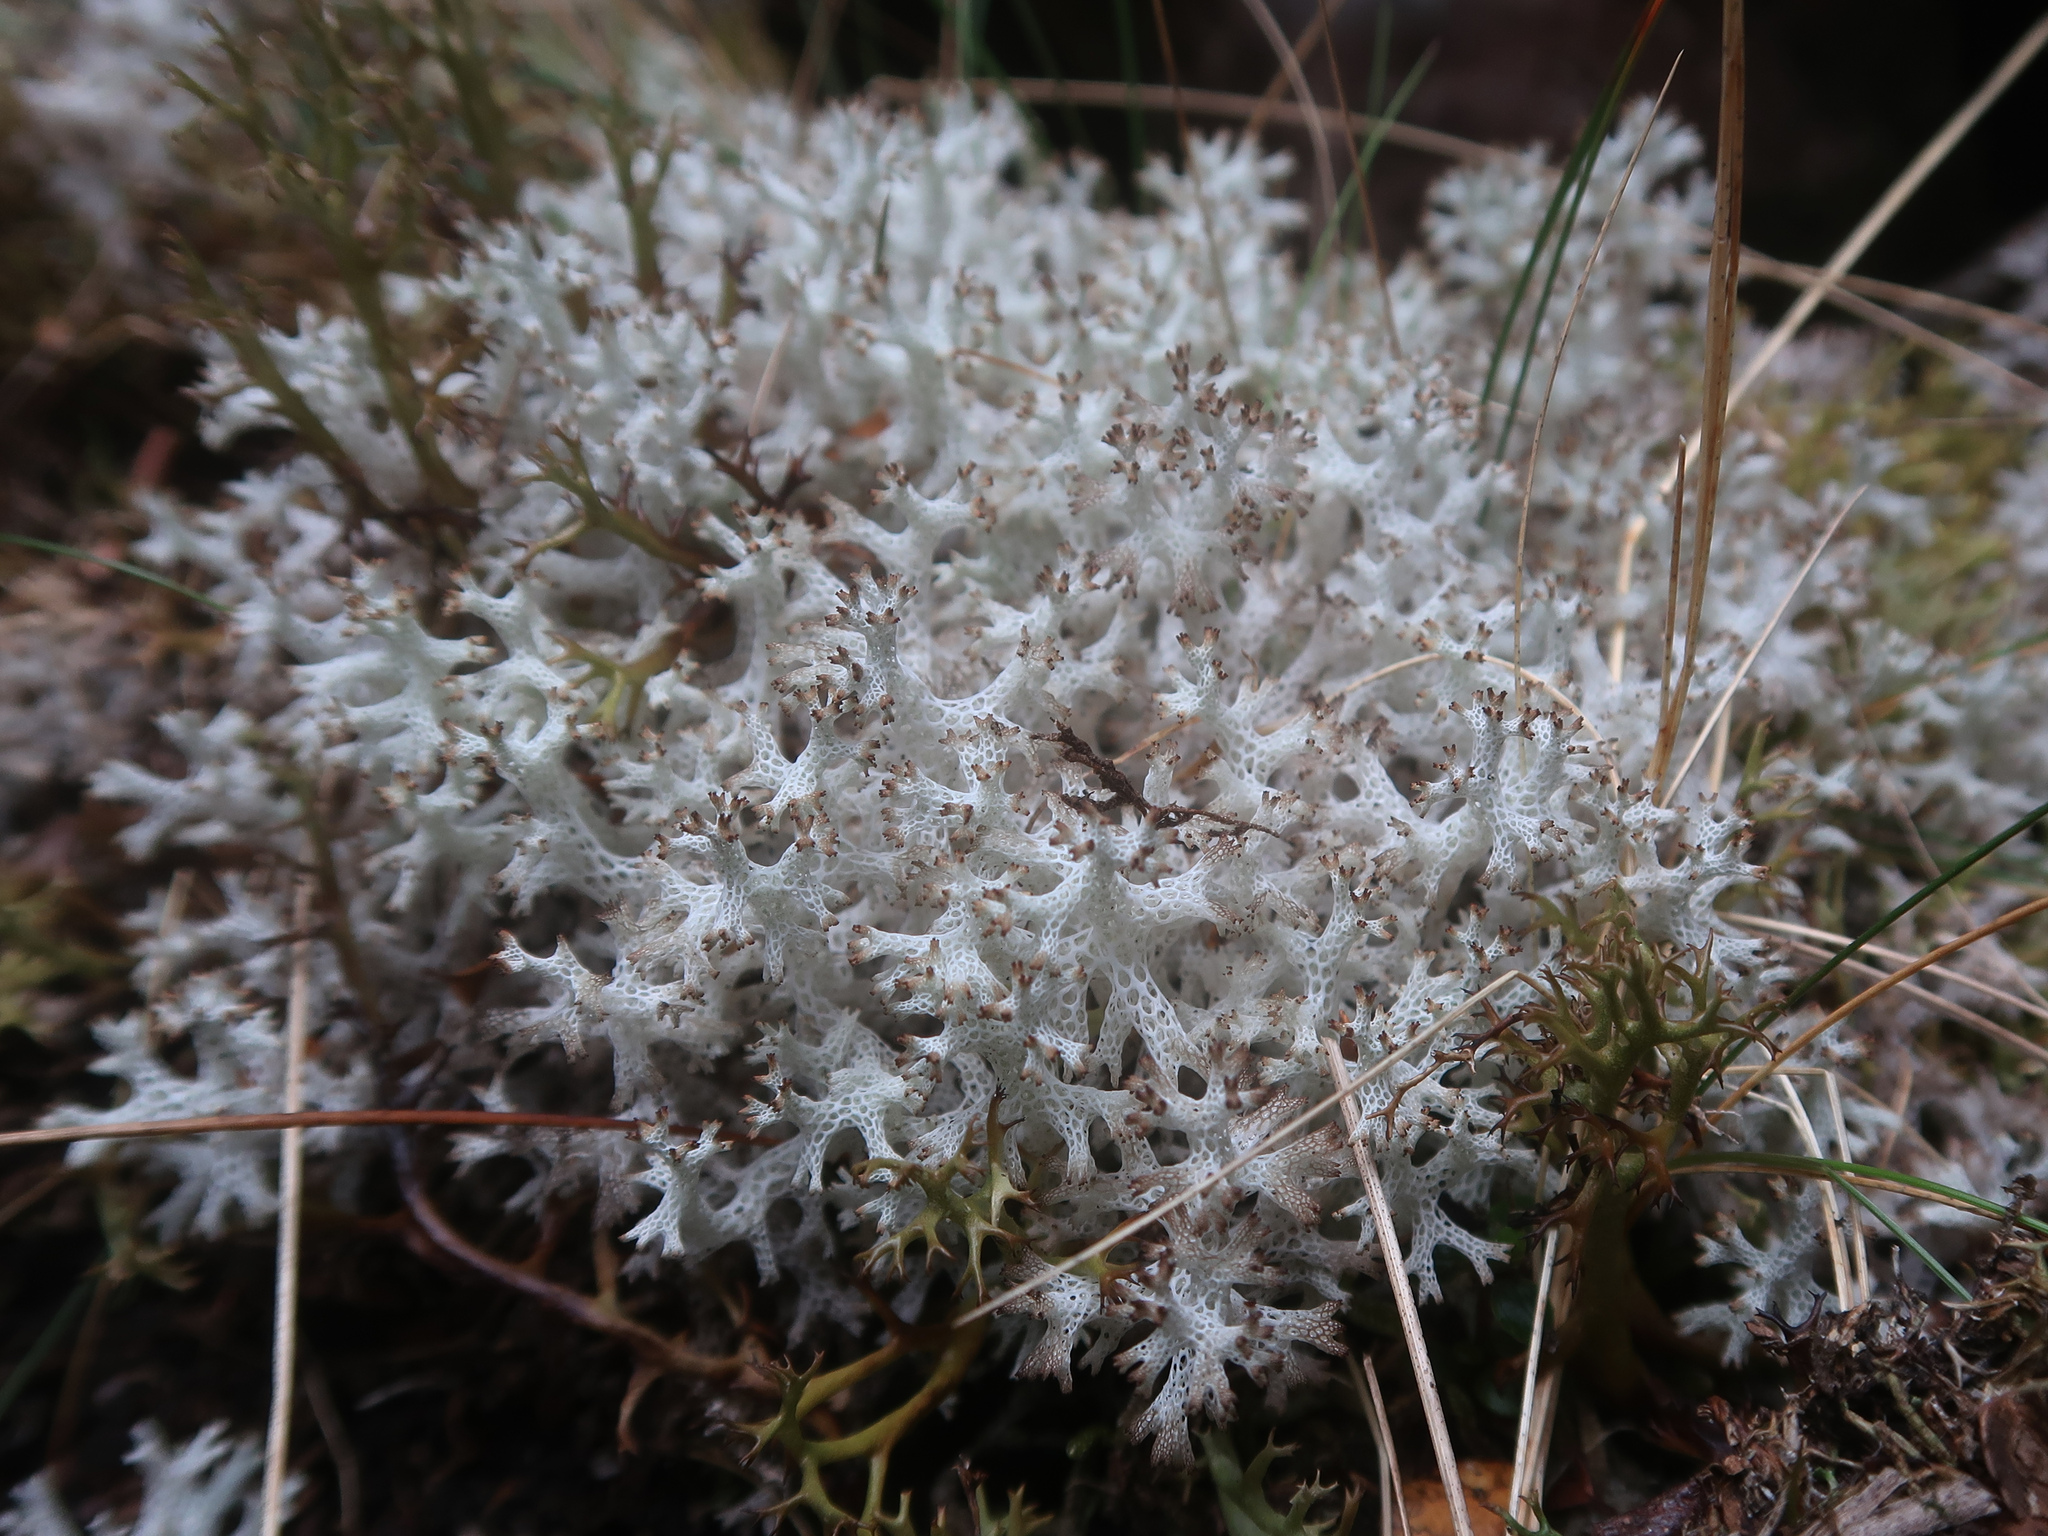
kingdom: Fungi
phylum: Ascomycota
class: Lecanoromycetes
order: Lecanorales
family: Cladoniaceae
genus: Pulchrocladia
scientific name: Pulchrocladia retipora
